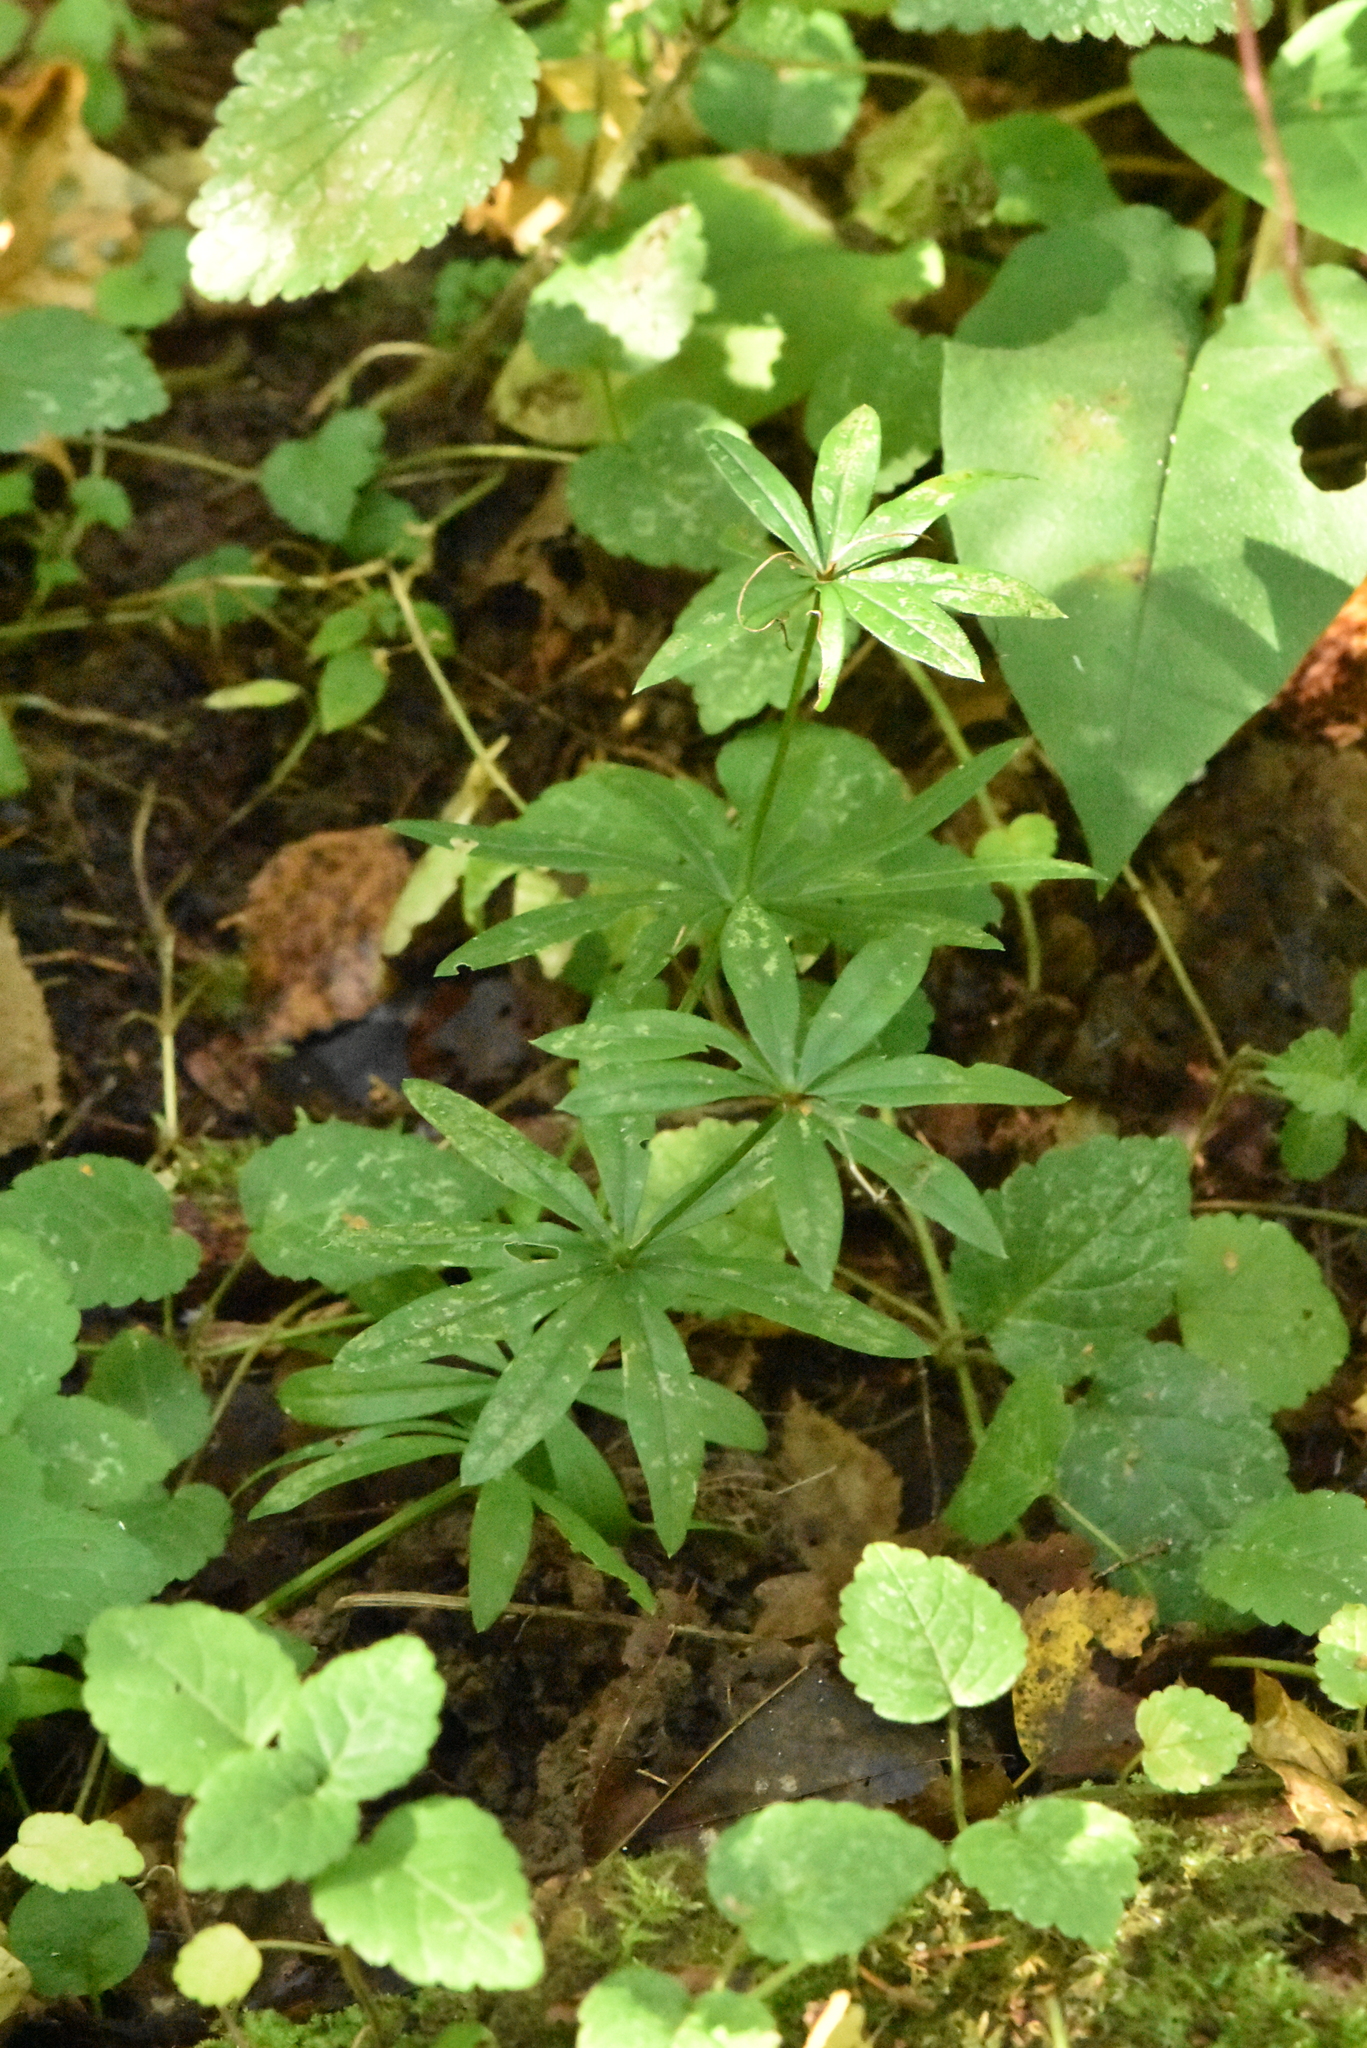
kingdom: Plantae
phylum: Tracheophyta
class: Magnoliopsida
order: Gentianales
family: Rubiaceae
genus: Galium
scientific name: Galium odoratum
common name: Sweet woodruff
